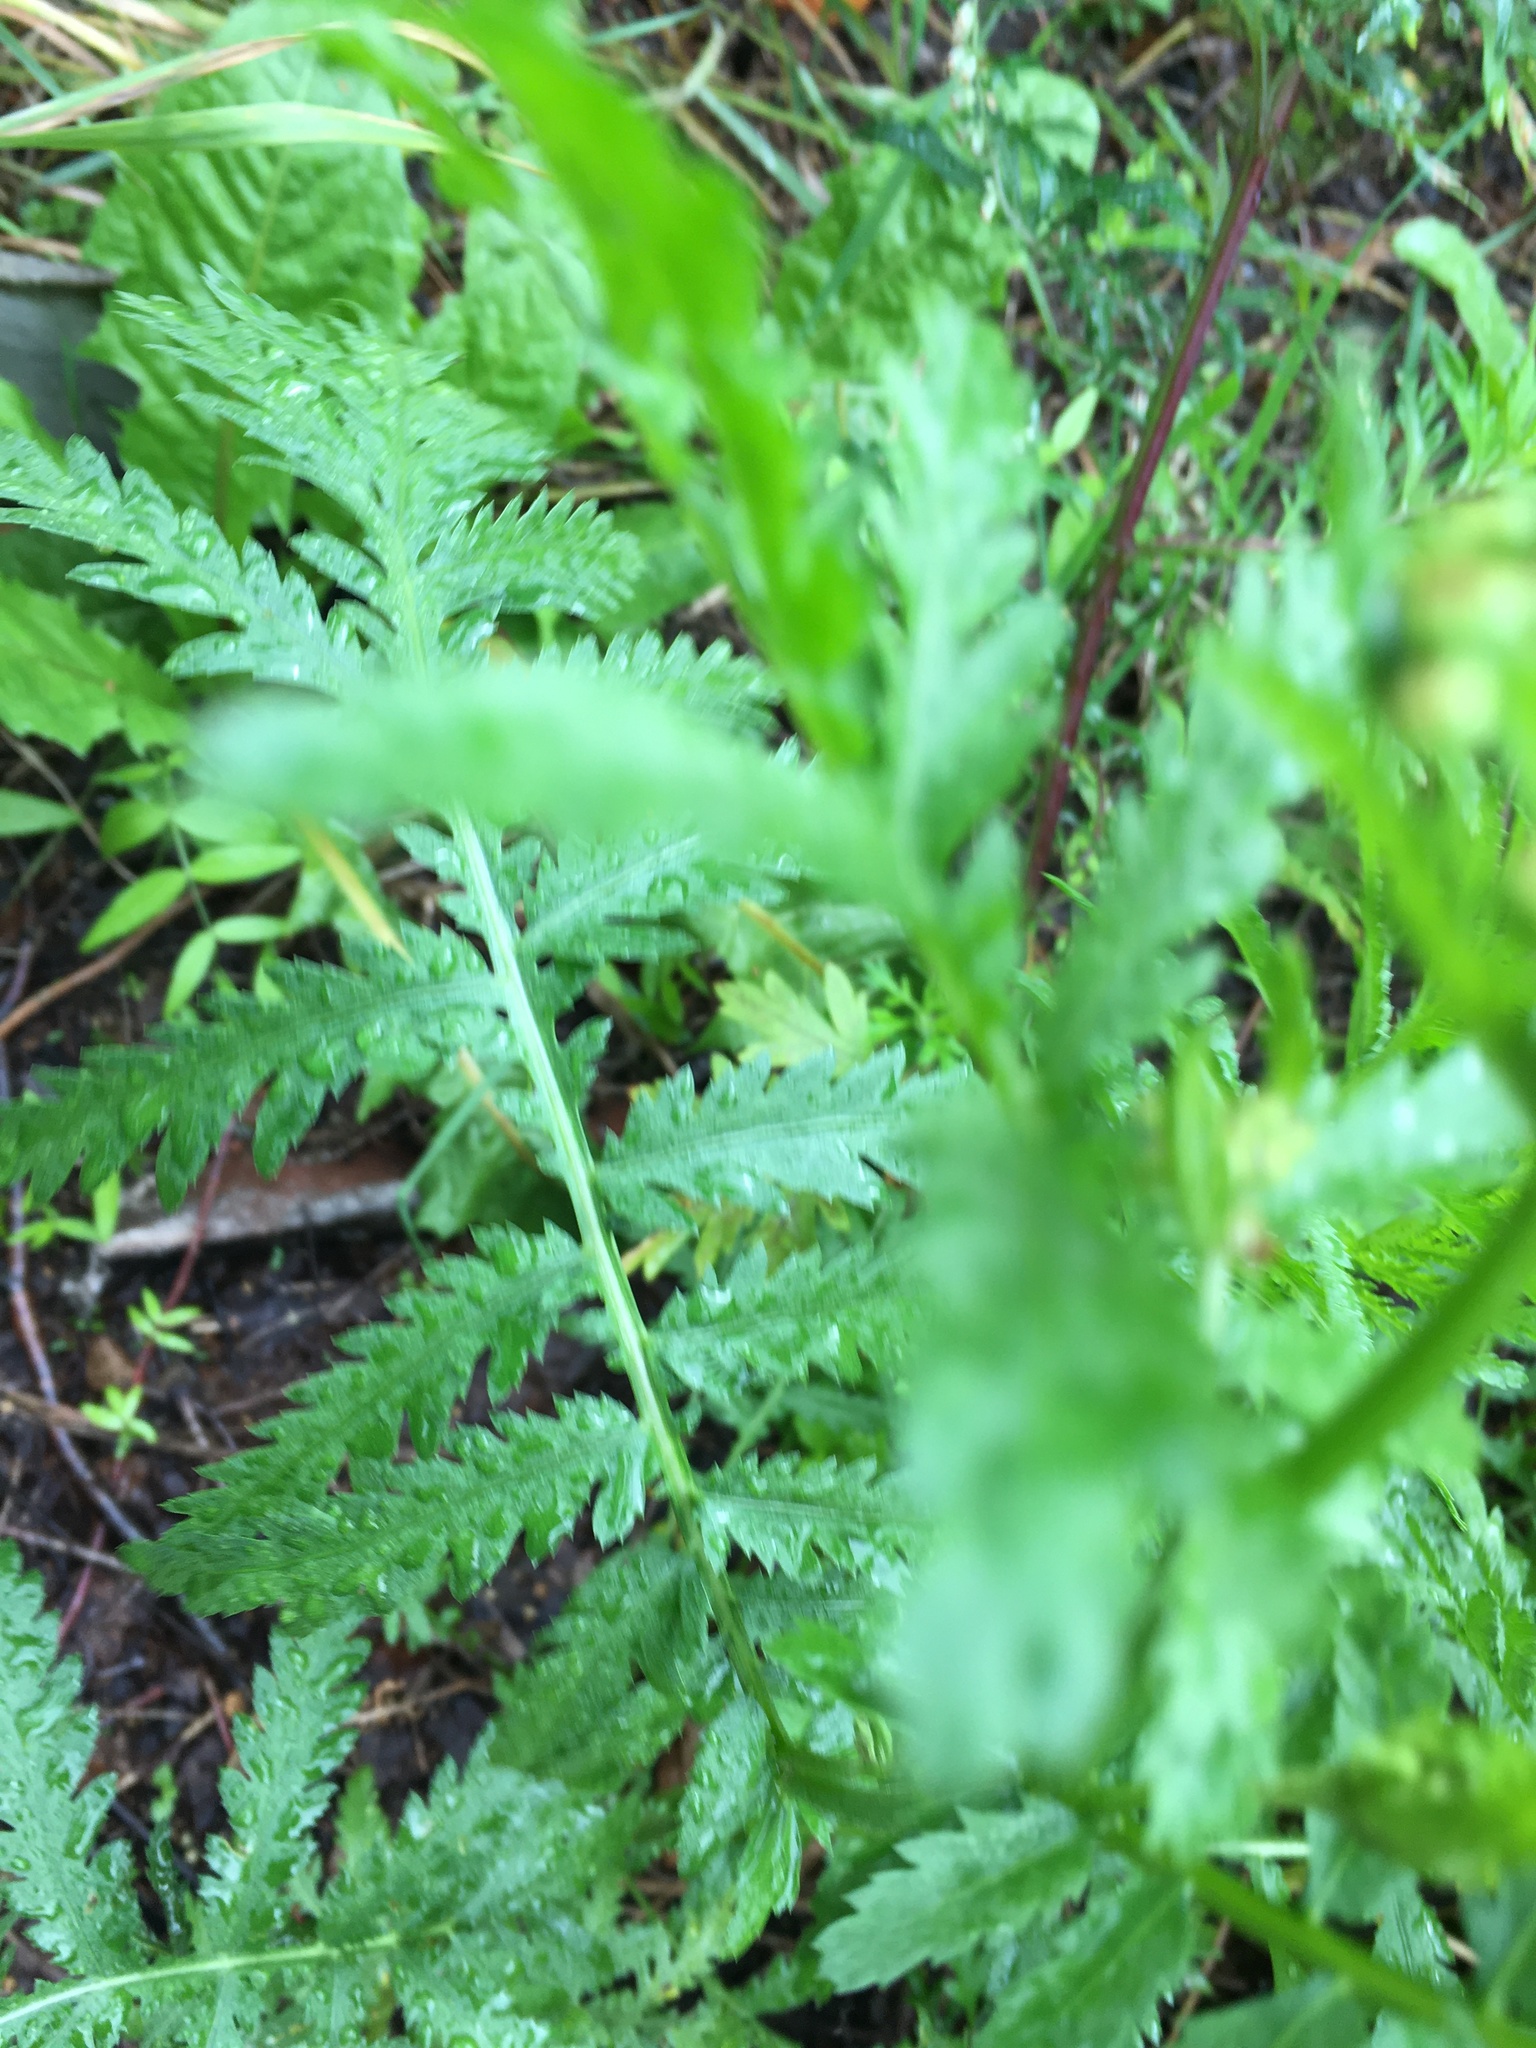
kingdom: Plantae
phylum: Tracheophyta
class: Magnoliopsida
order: Asterales
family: Asteraceae
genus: Tanacetum
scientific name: Tanacetum vulgare
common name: Common tansy
